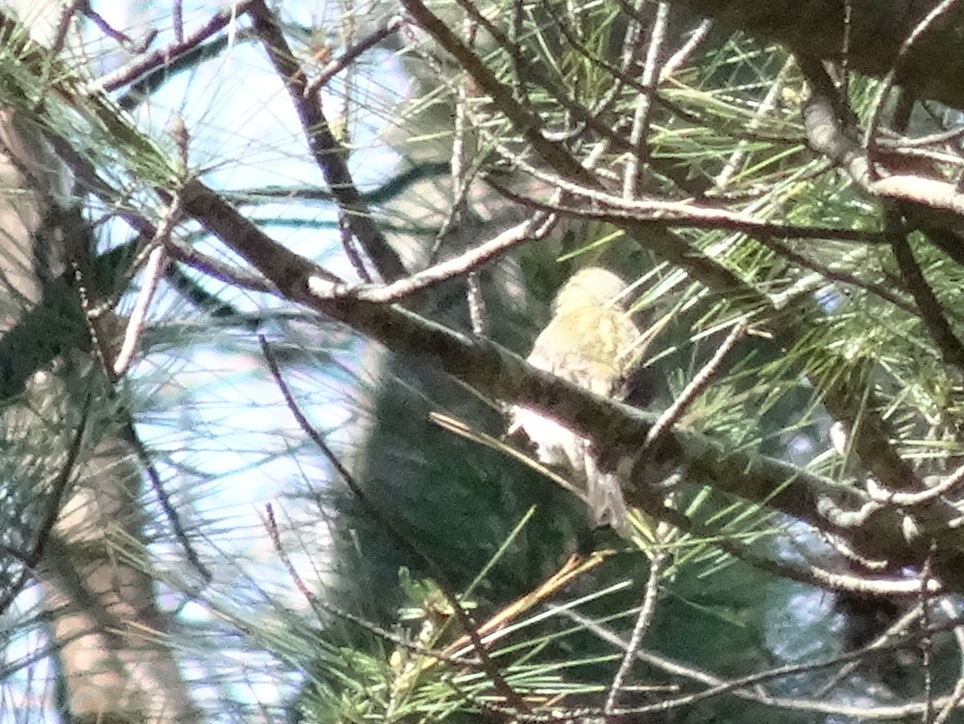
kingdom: Animalia
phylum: Chordata
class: Aves
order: Passeriformes
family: Parulidae
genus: Setophaga
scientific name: Setophaga pinus
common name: Pine warbler
